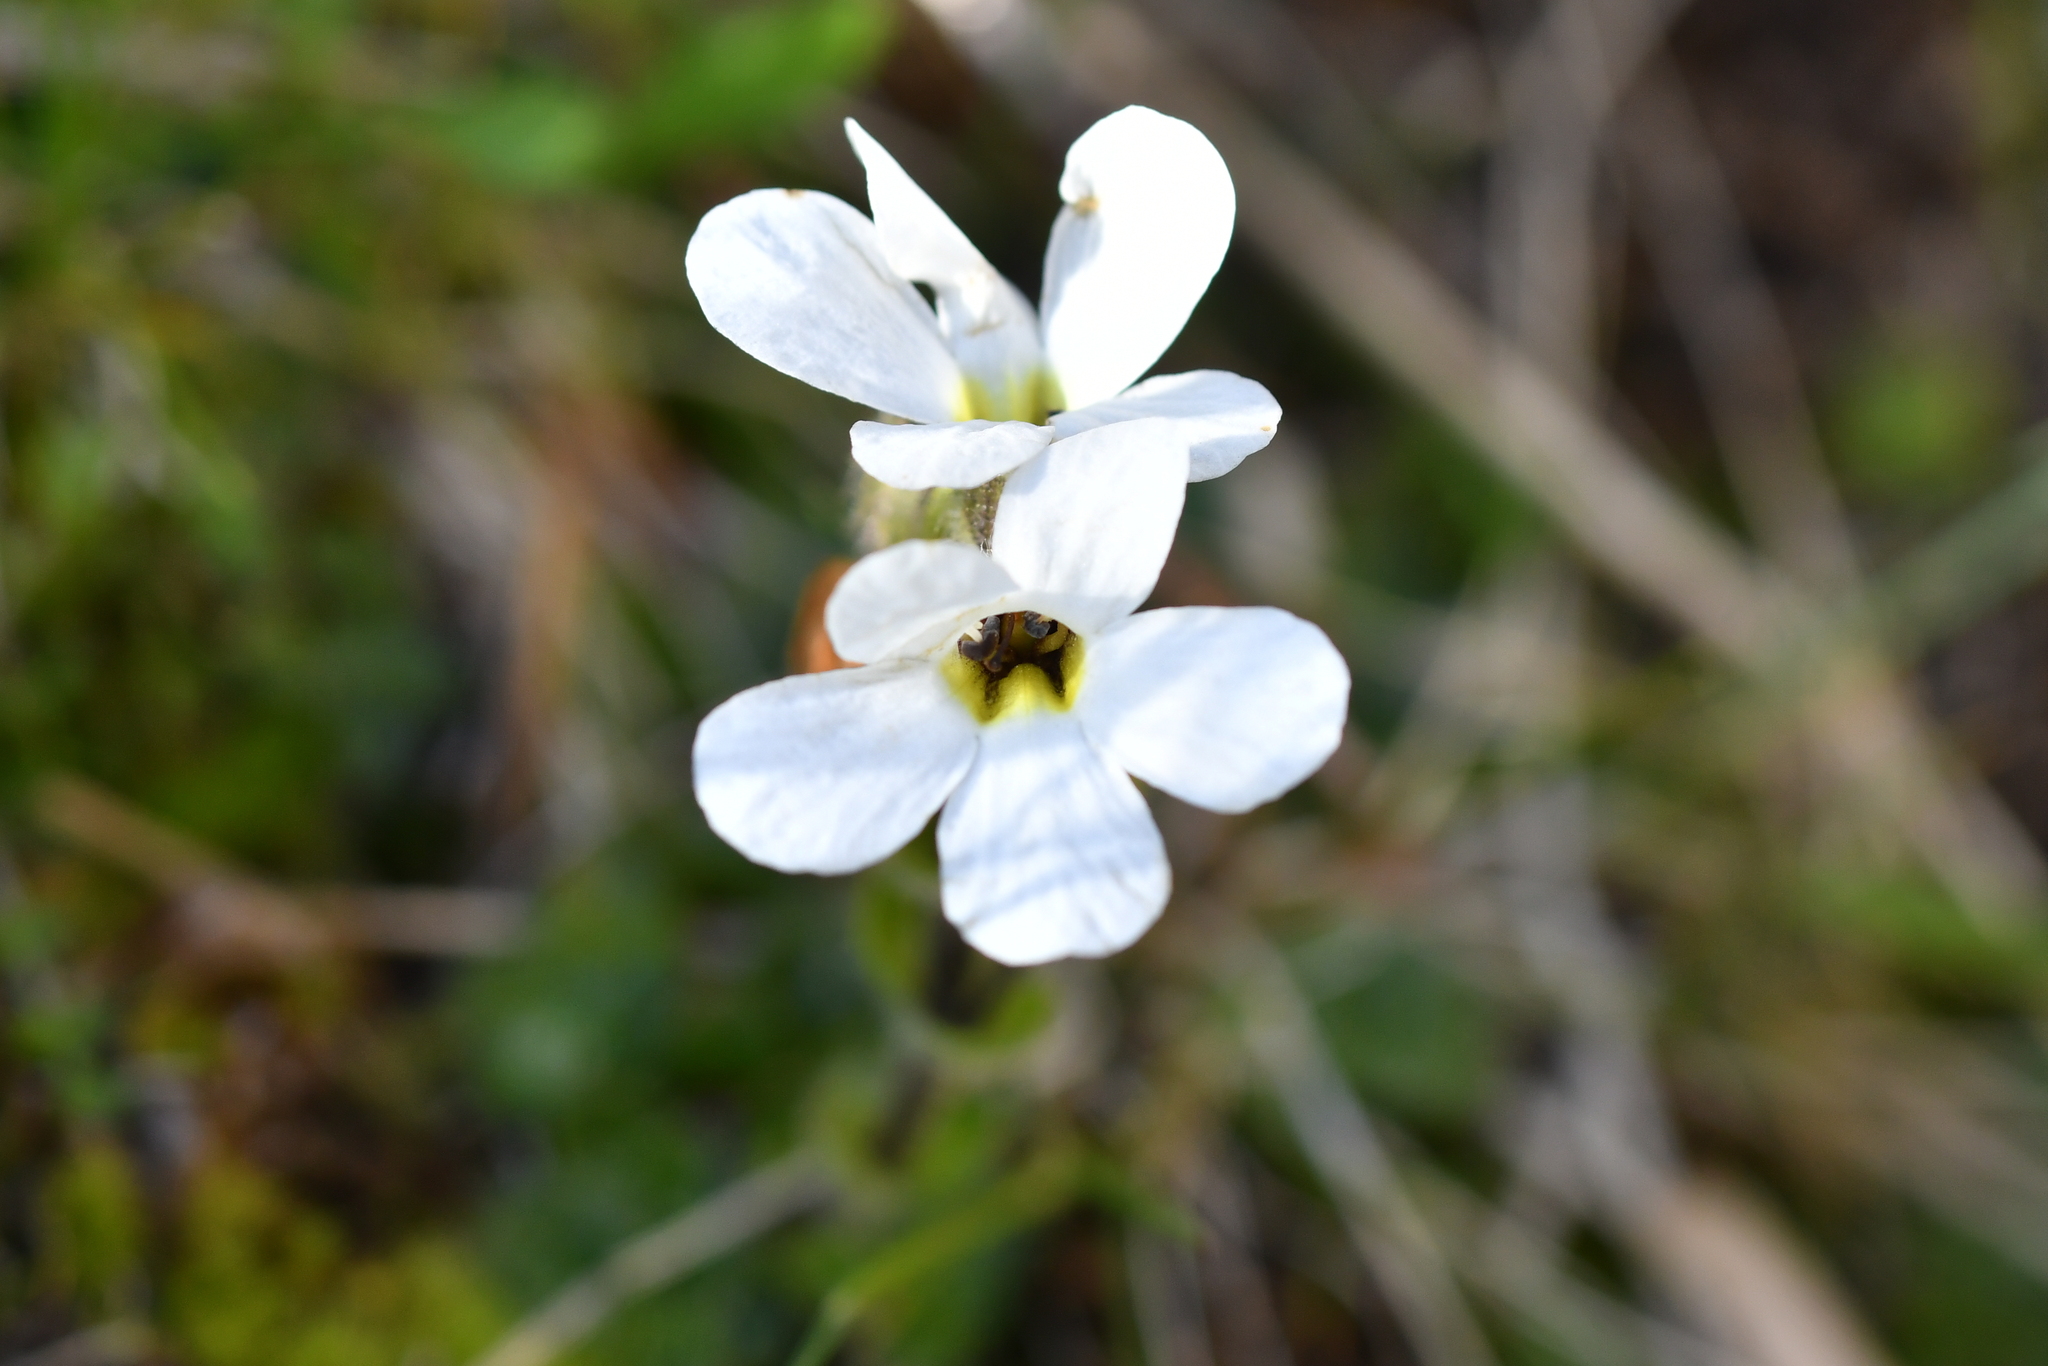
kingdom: Plantae
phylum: Tracheophyta
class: Magnoliopsida
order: Lamiales
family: Plantaginaceae
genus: Ourisia
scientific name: Ourisia glandulosa
